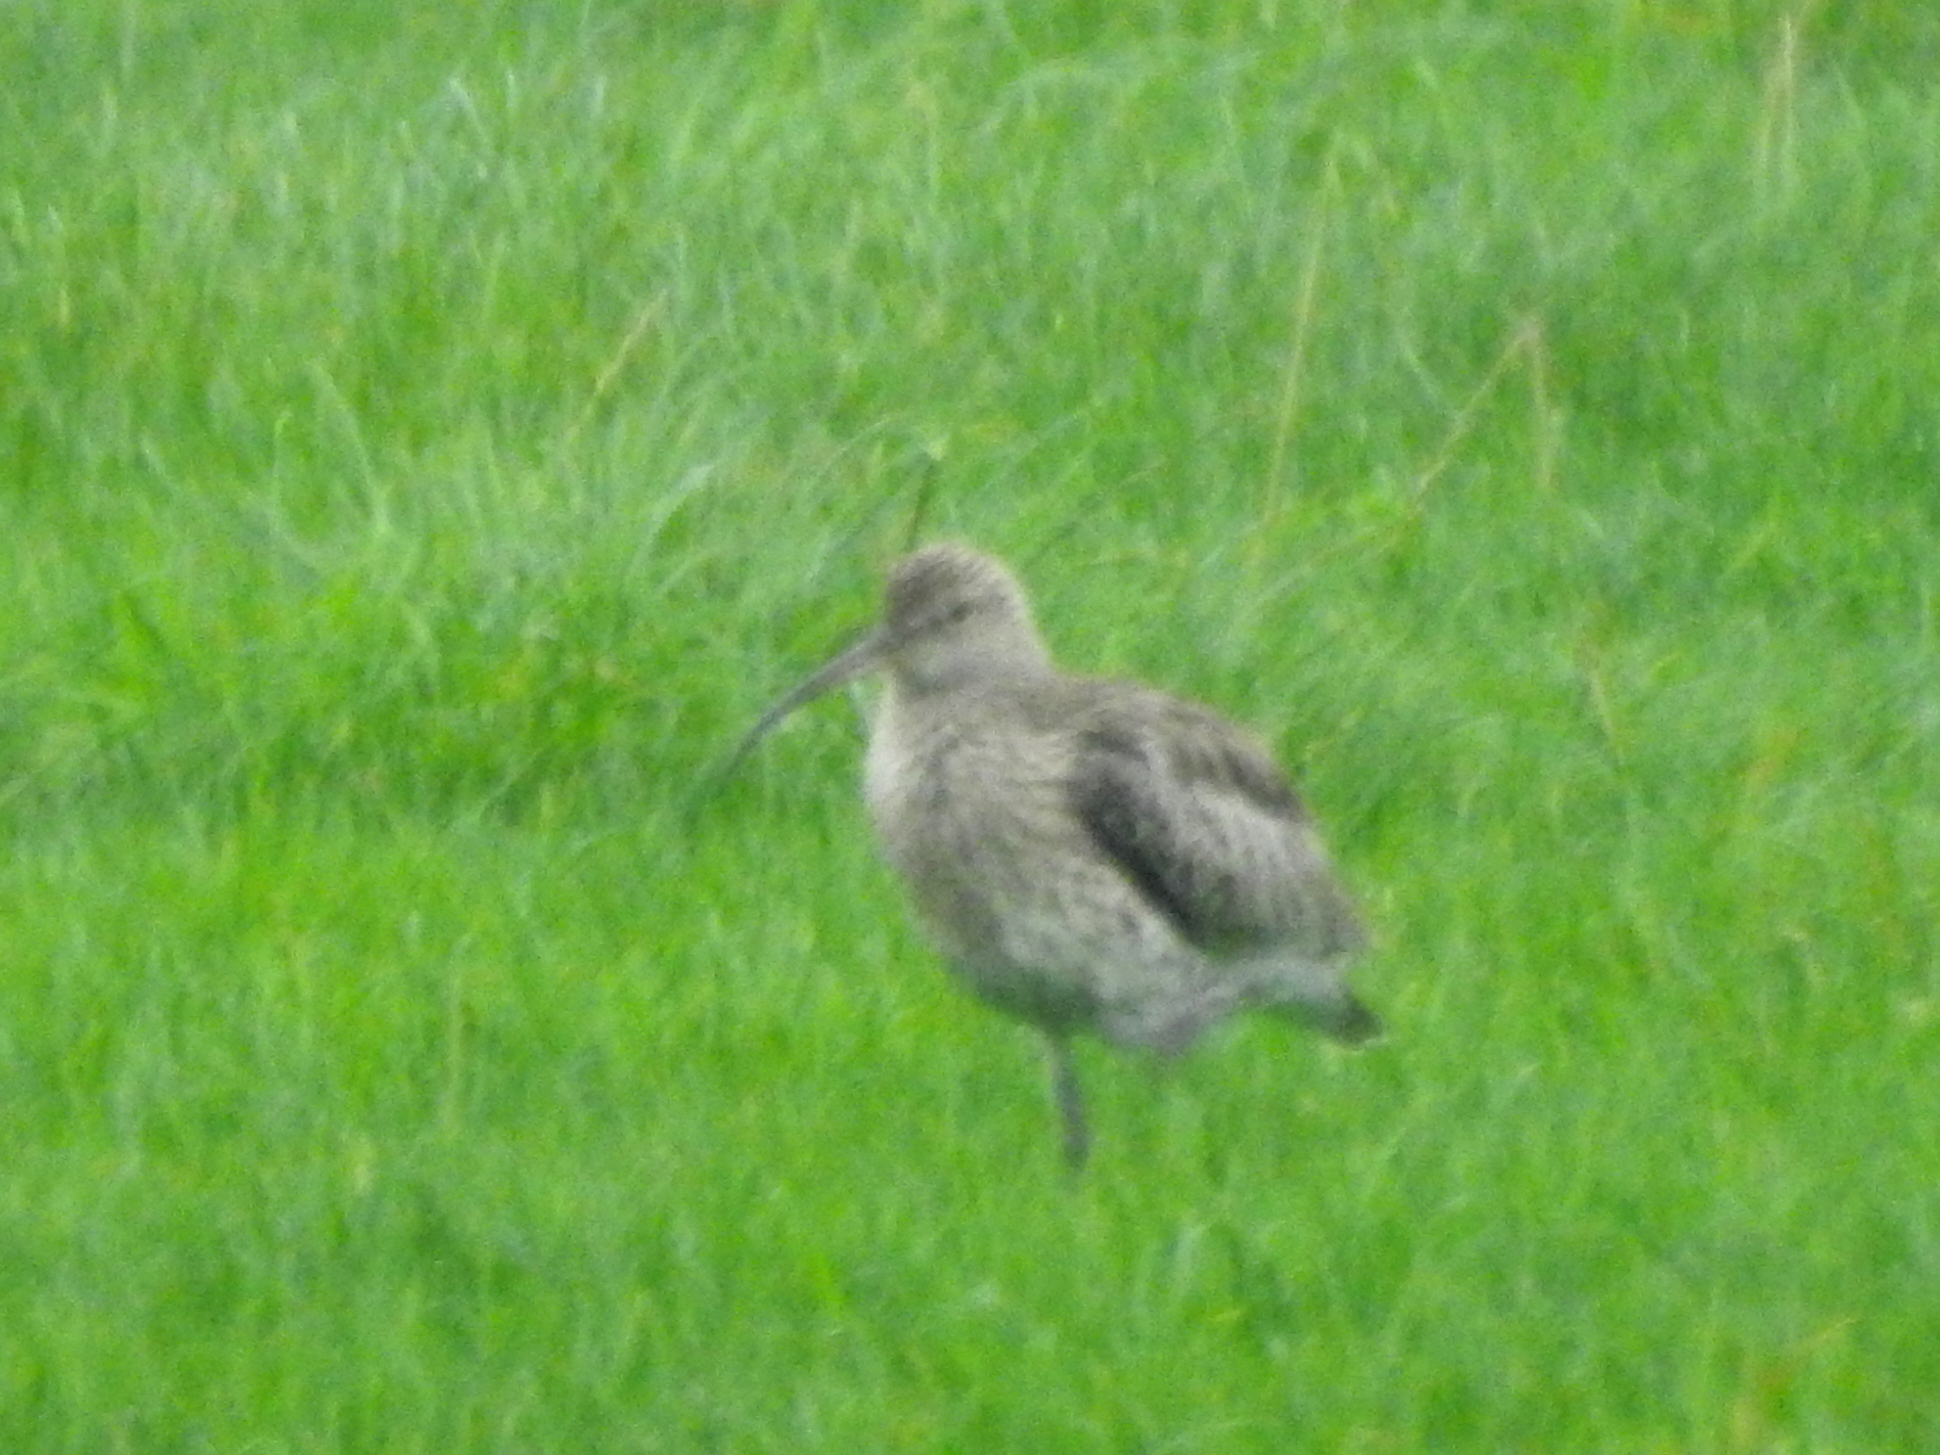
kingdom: Animalia
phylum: Chordata
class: Aves
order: Charadriiformes
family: Scolopacidae
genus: Numenius
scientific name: Numenius arquata
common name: Eurasian curlew
